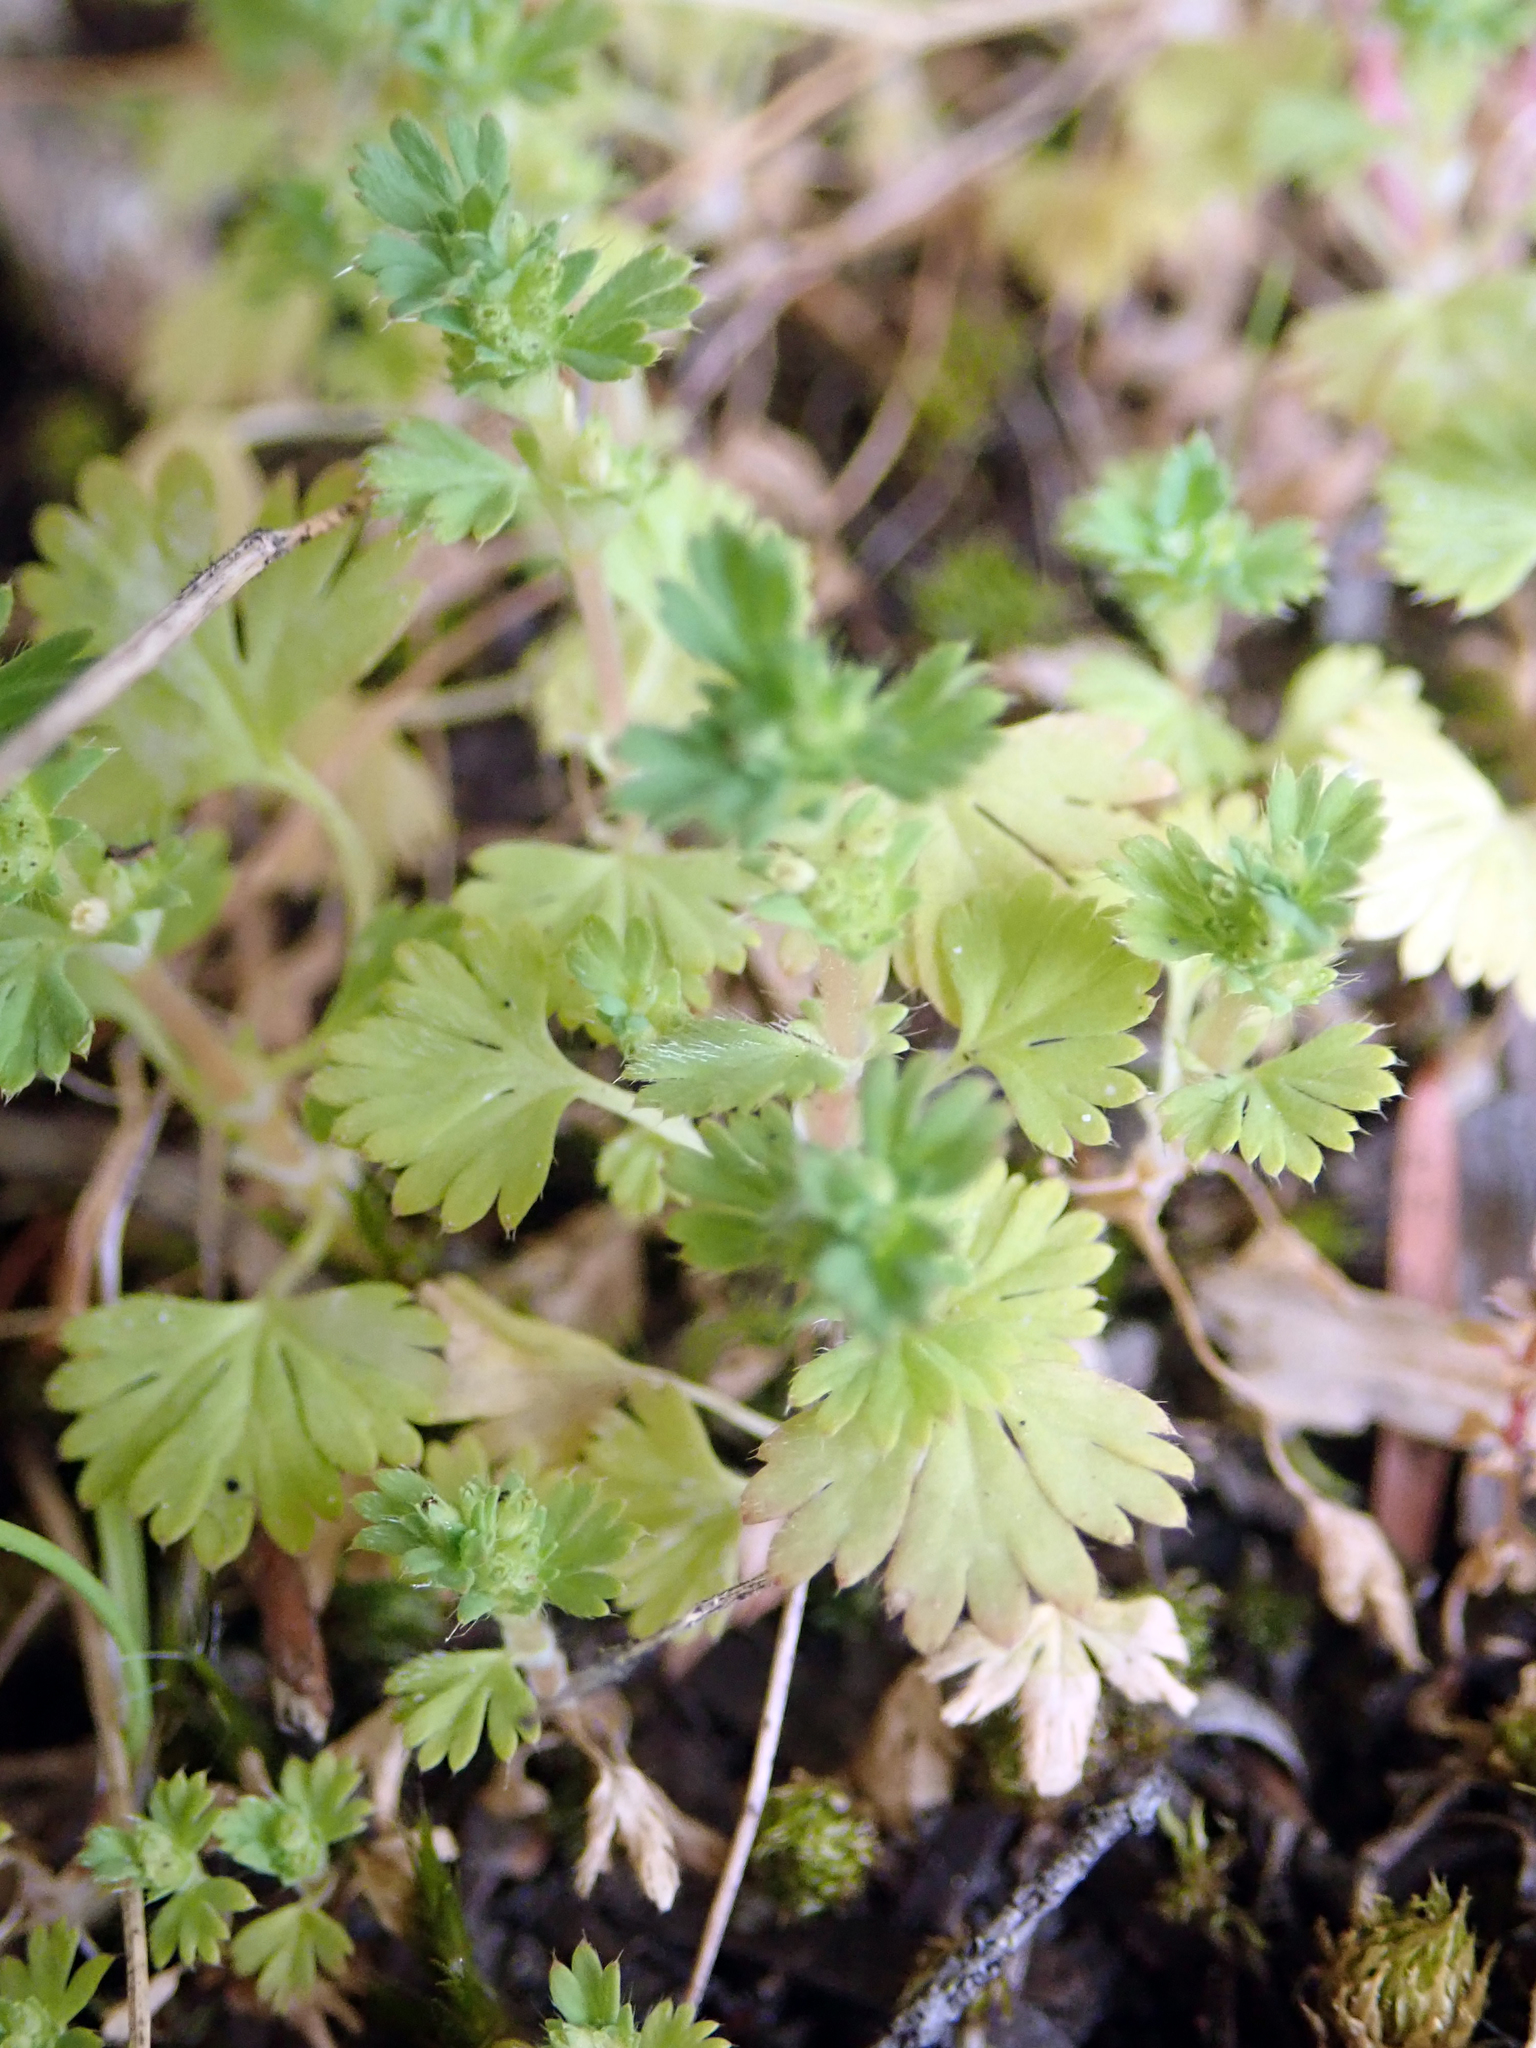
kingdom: Plantae
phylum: Tracheophyta
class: Magnoliopsida
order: Rosales
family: Rosaceae
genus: Aphanes
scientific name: Aphanes australis
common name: Slender parsley-piert
